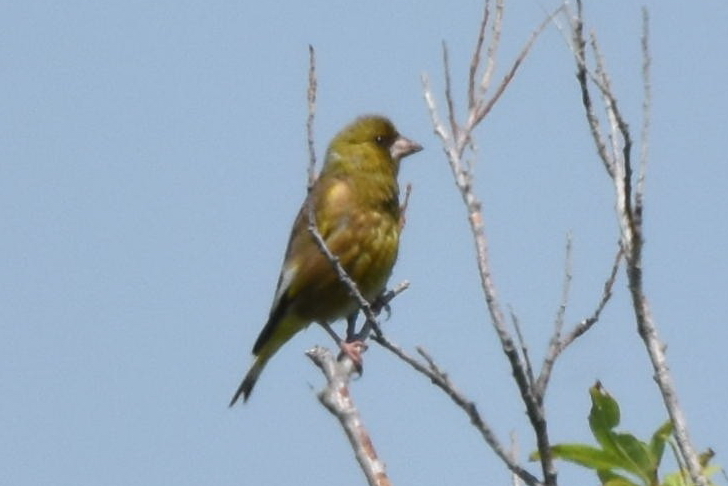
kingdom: Plantae
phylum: Tracheophyta
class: Liliopsida
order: Poales
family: Poaceae
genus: Chloris
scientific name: Chloris sinica
